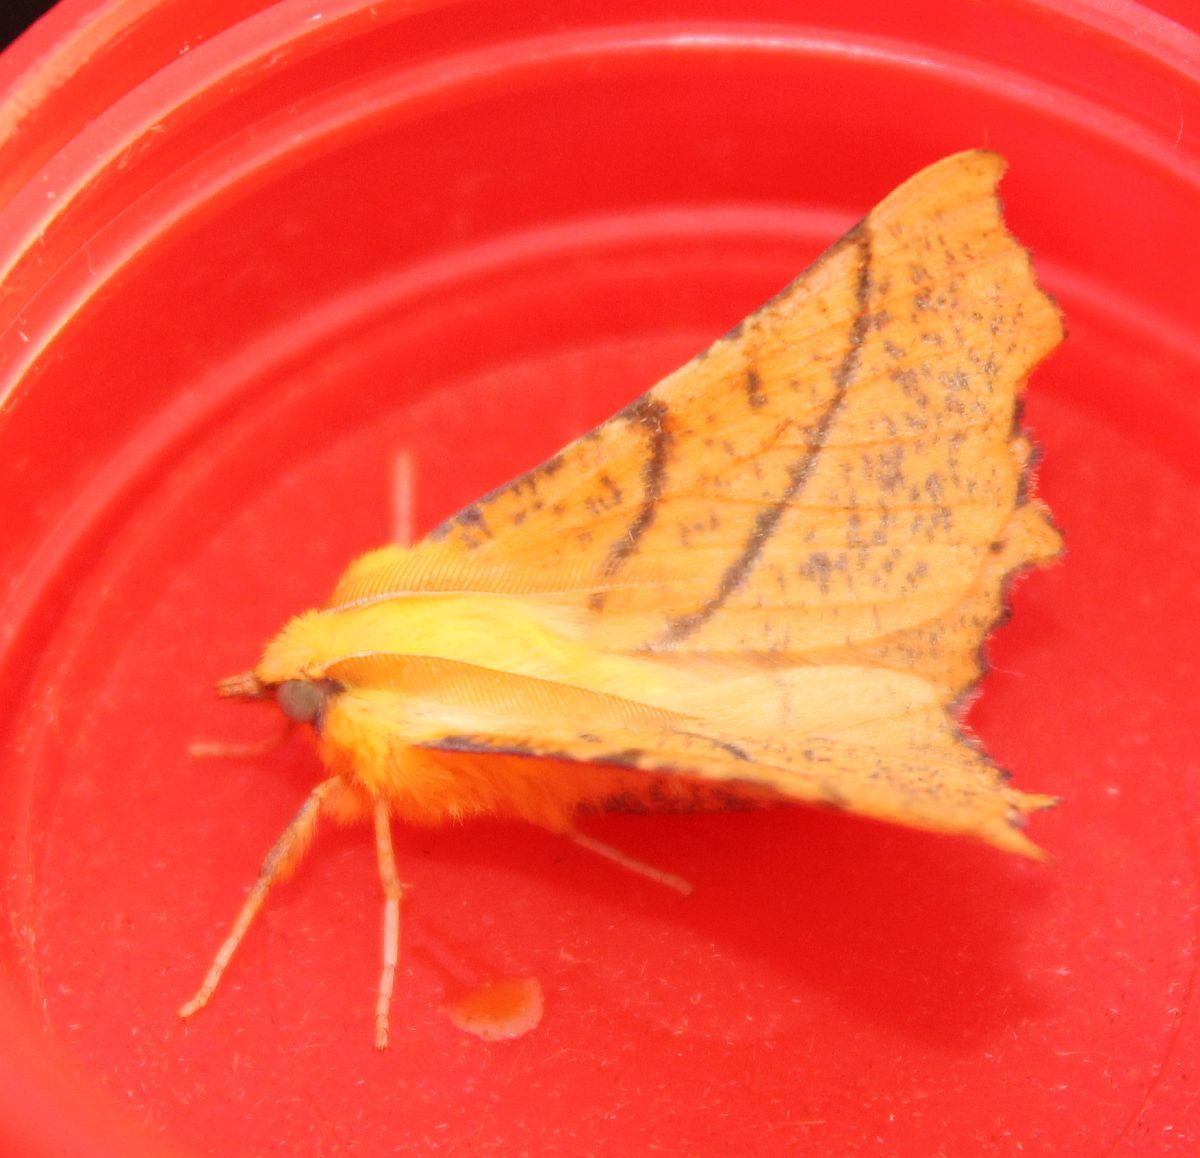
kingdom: Animalia
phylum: Arthropoda
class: Insecta
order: Lepidoptera
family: Geometridae
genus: Ennomos
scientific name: Ennomos alniaria
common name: Canary-shouldered thorn
